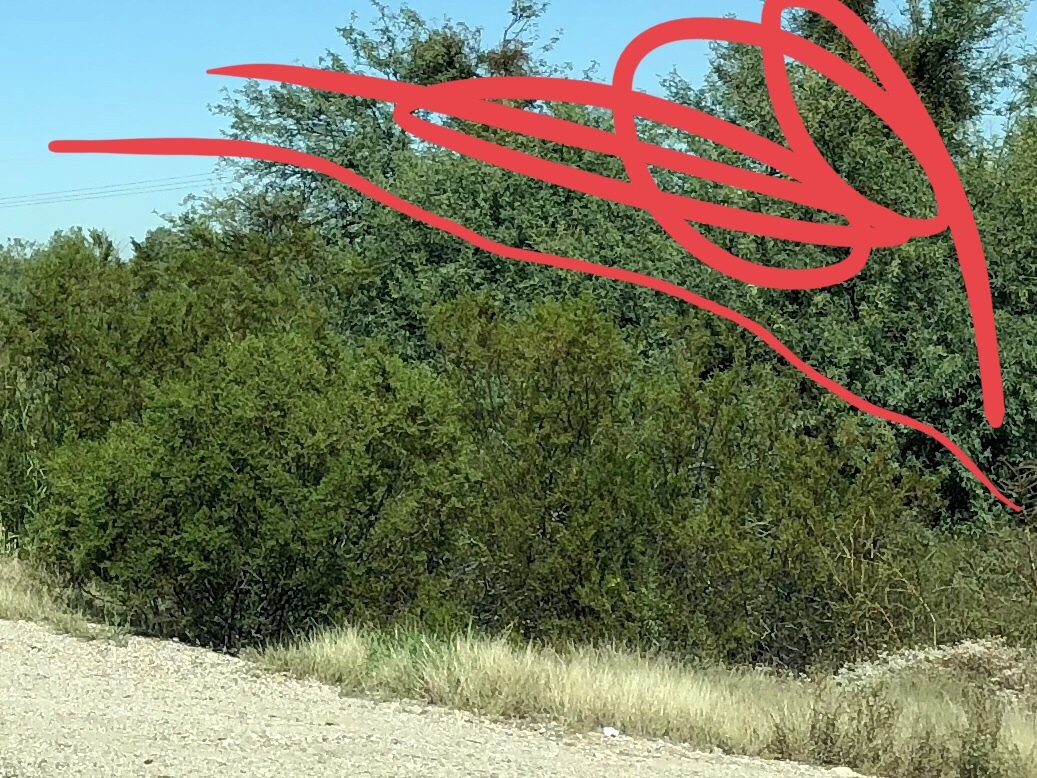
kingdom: Plantae
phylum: Tracheophyta
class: Magnoliopsida
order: Zygophyllales
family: Zygophyllaceae
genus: Larrea
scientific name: Larrea tridentata
